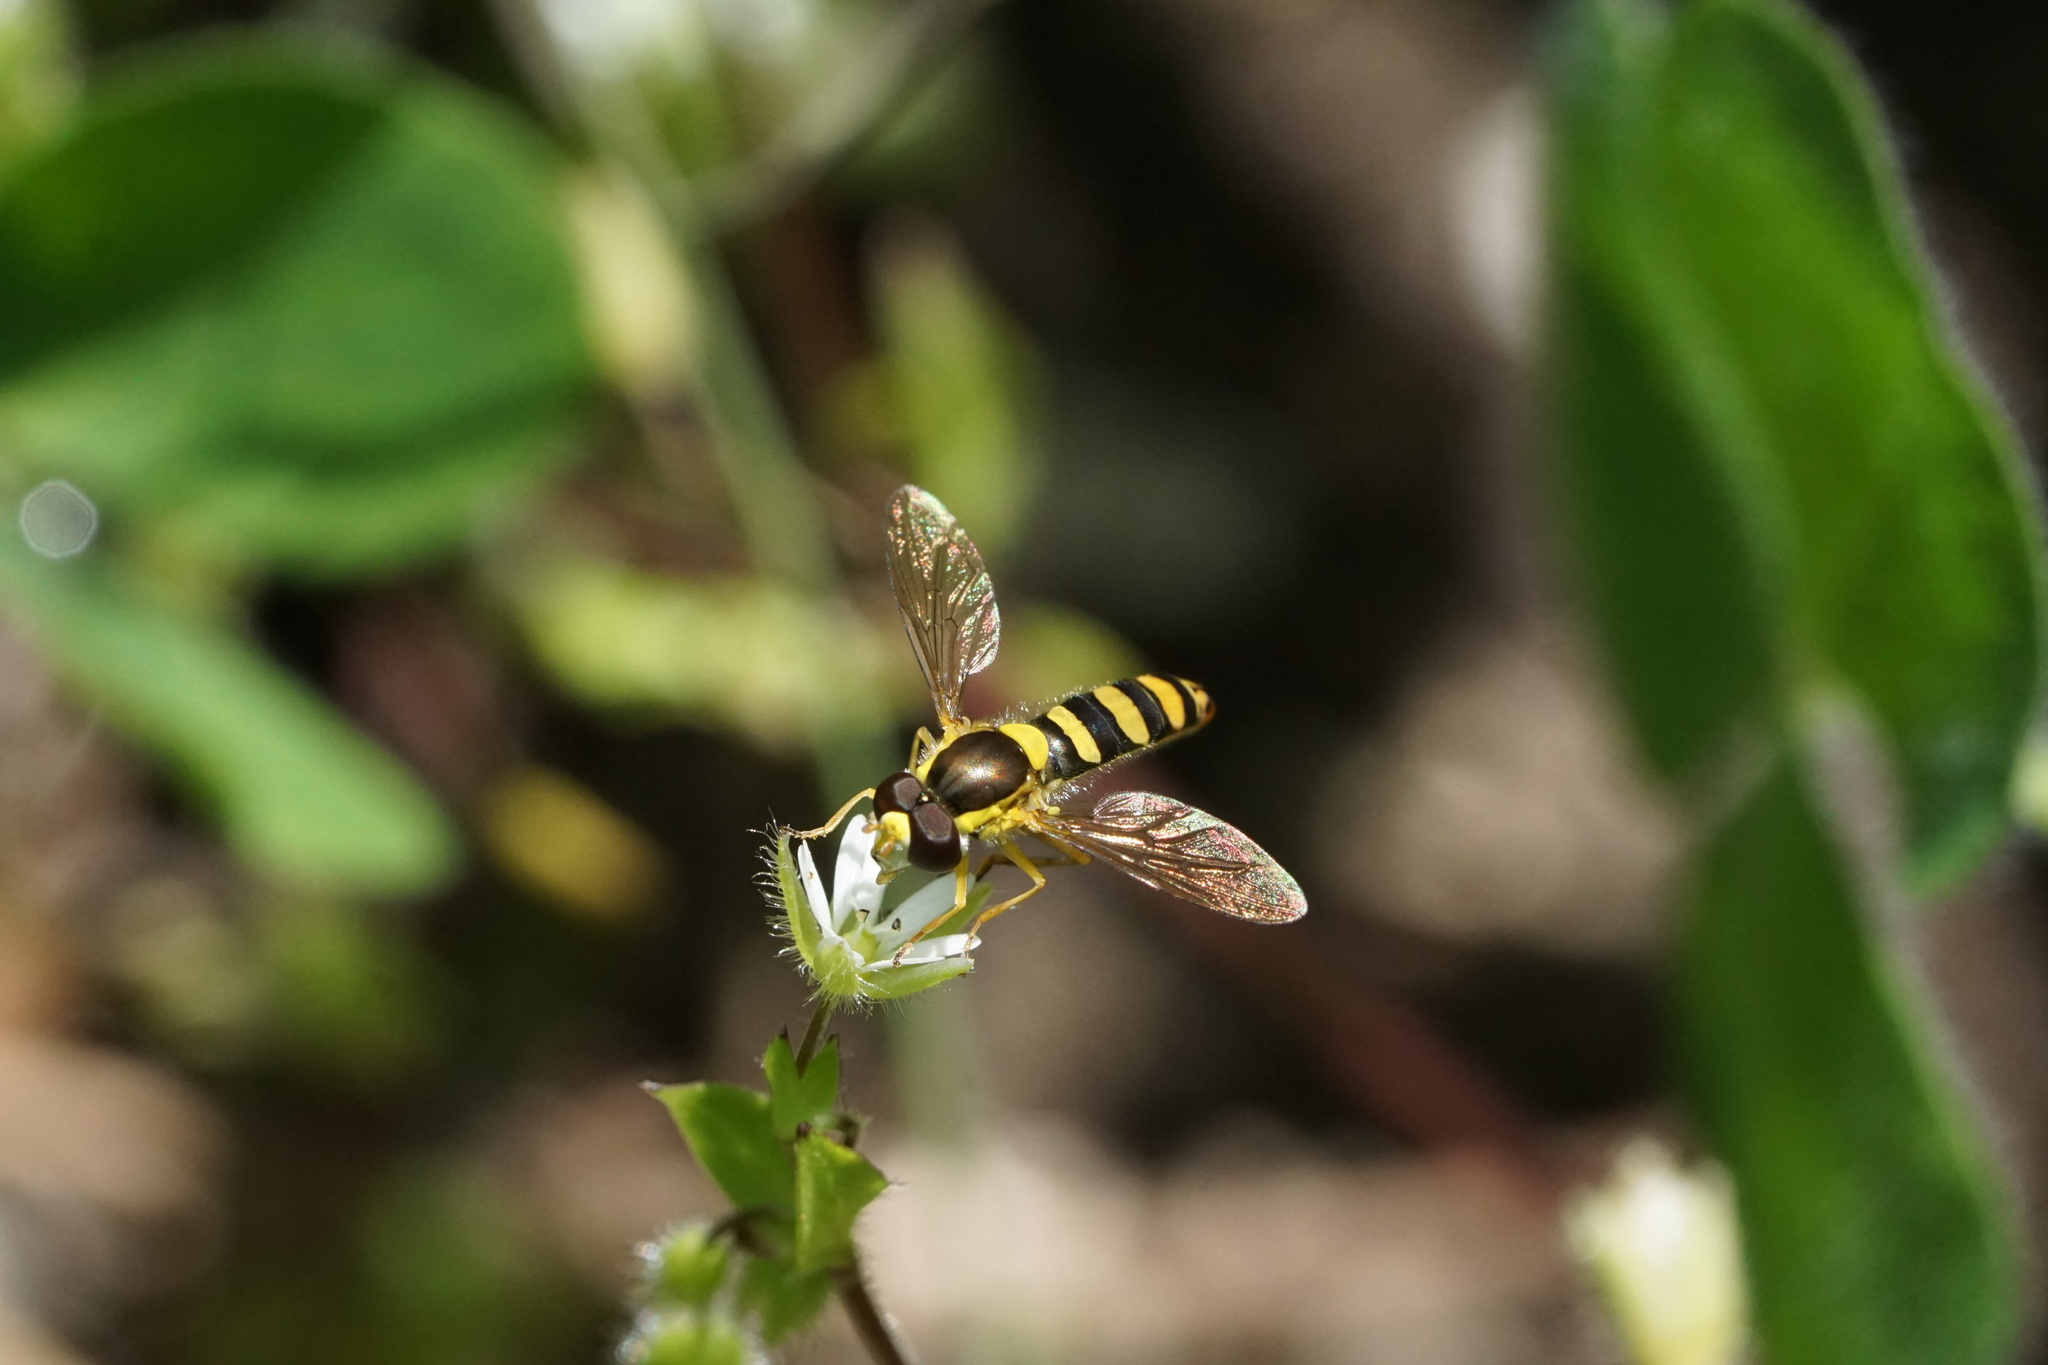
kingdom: Animalia
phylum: Arthropoda
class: Insecta
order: Diptera
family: Syrphidae
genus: Sphaerophoria
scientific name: Sphaerophoria philantha
